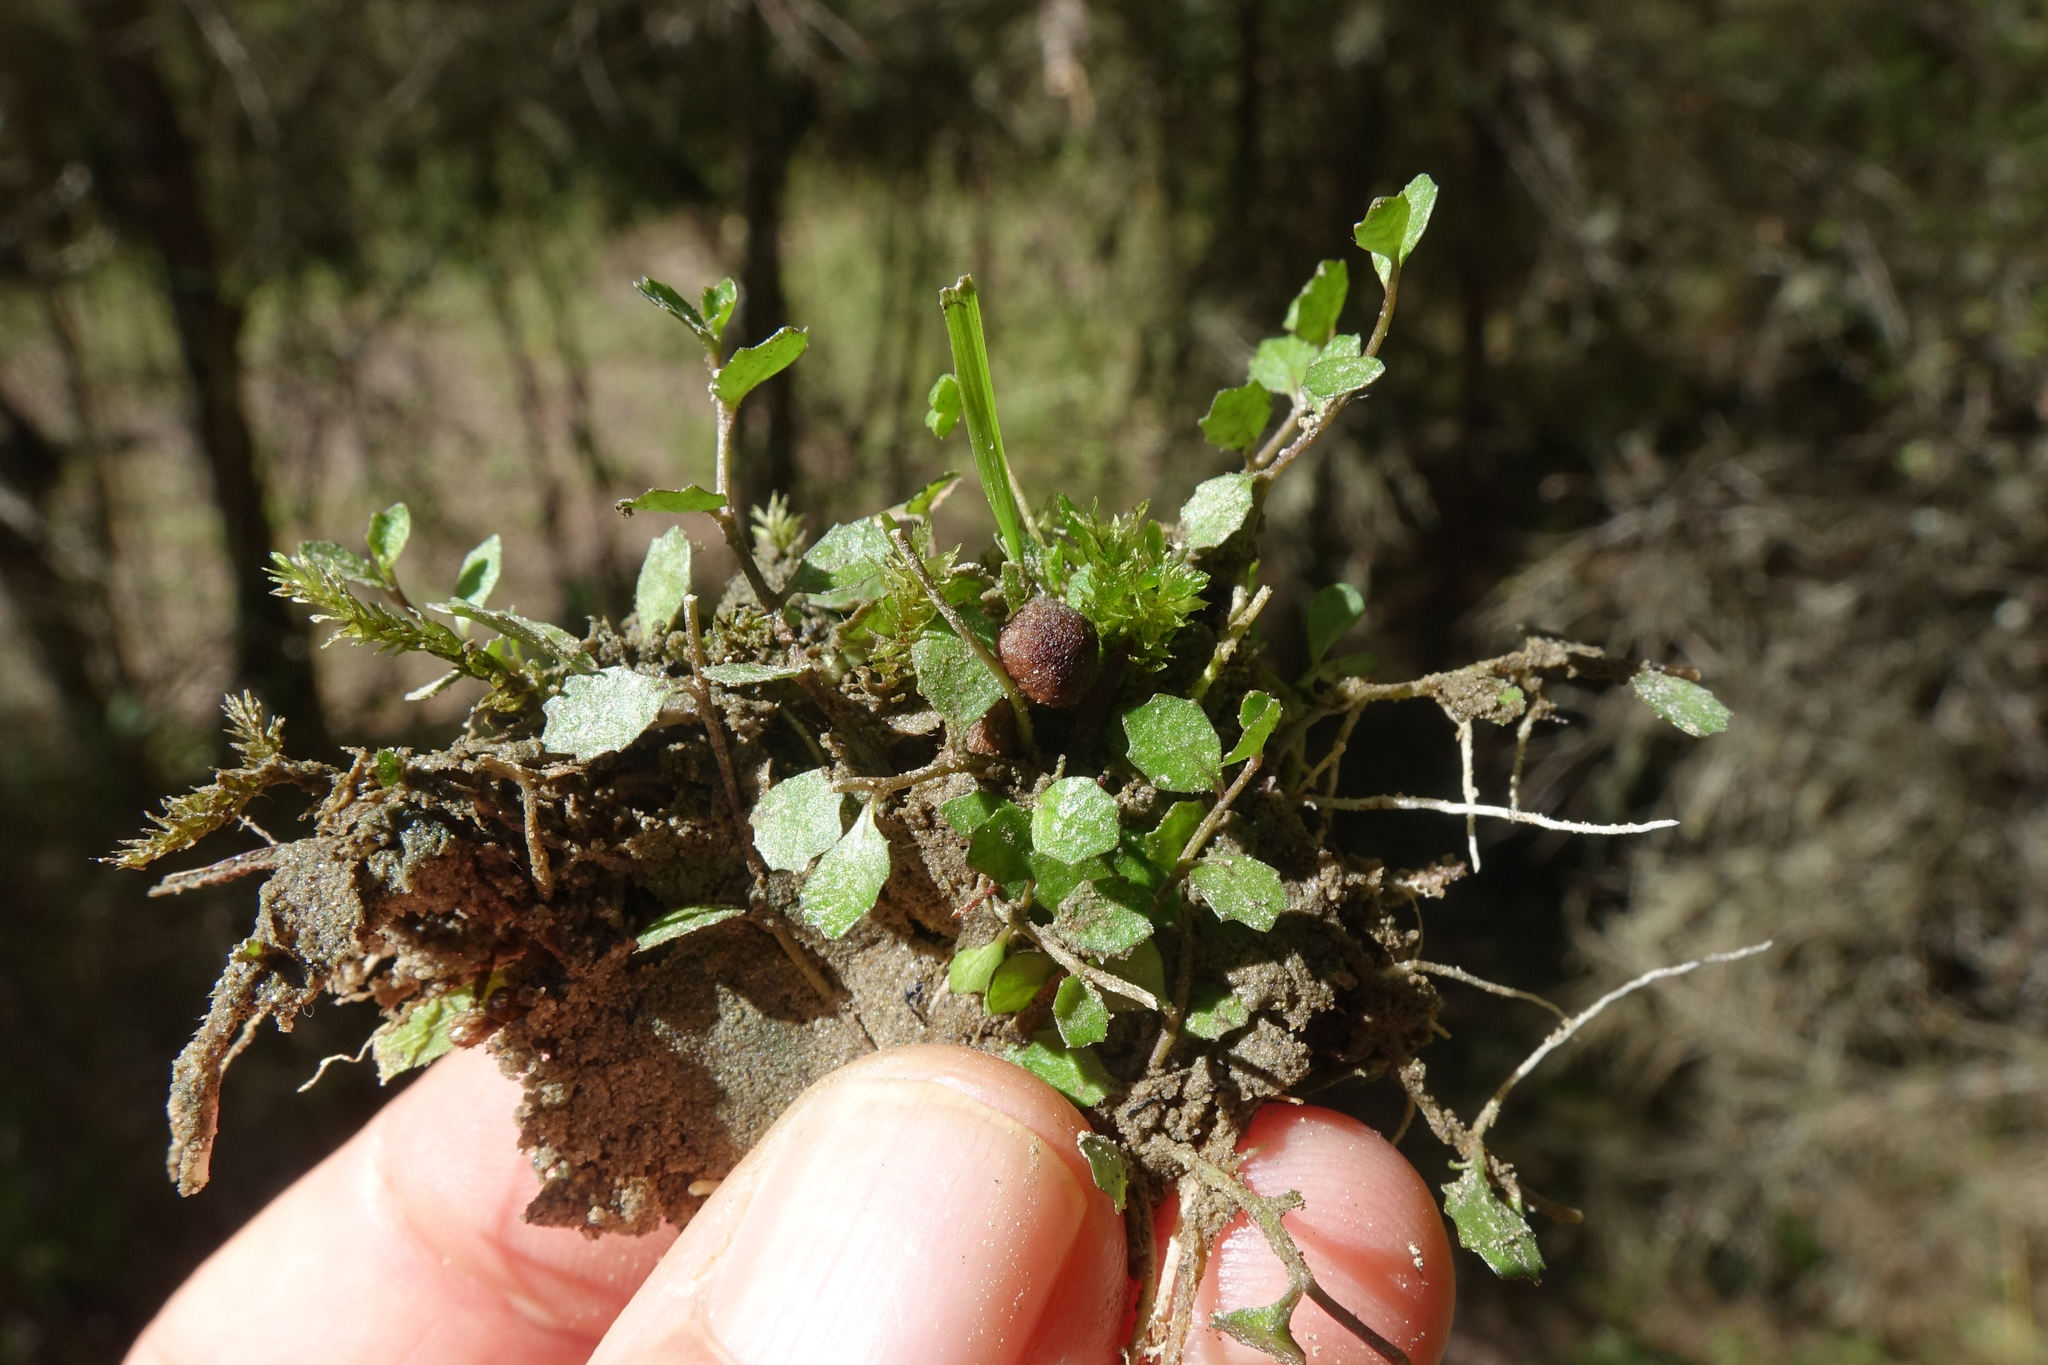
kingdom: Plantae
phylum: Tracheophyta
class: Magnoliopsida
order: Asterales
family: Campanulaceae
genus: Lobelia
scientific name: Lobelia angulata
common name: Lawn lobelia
